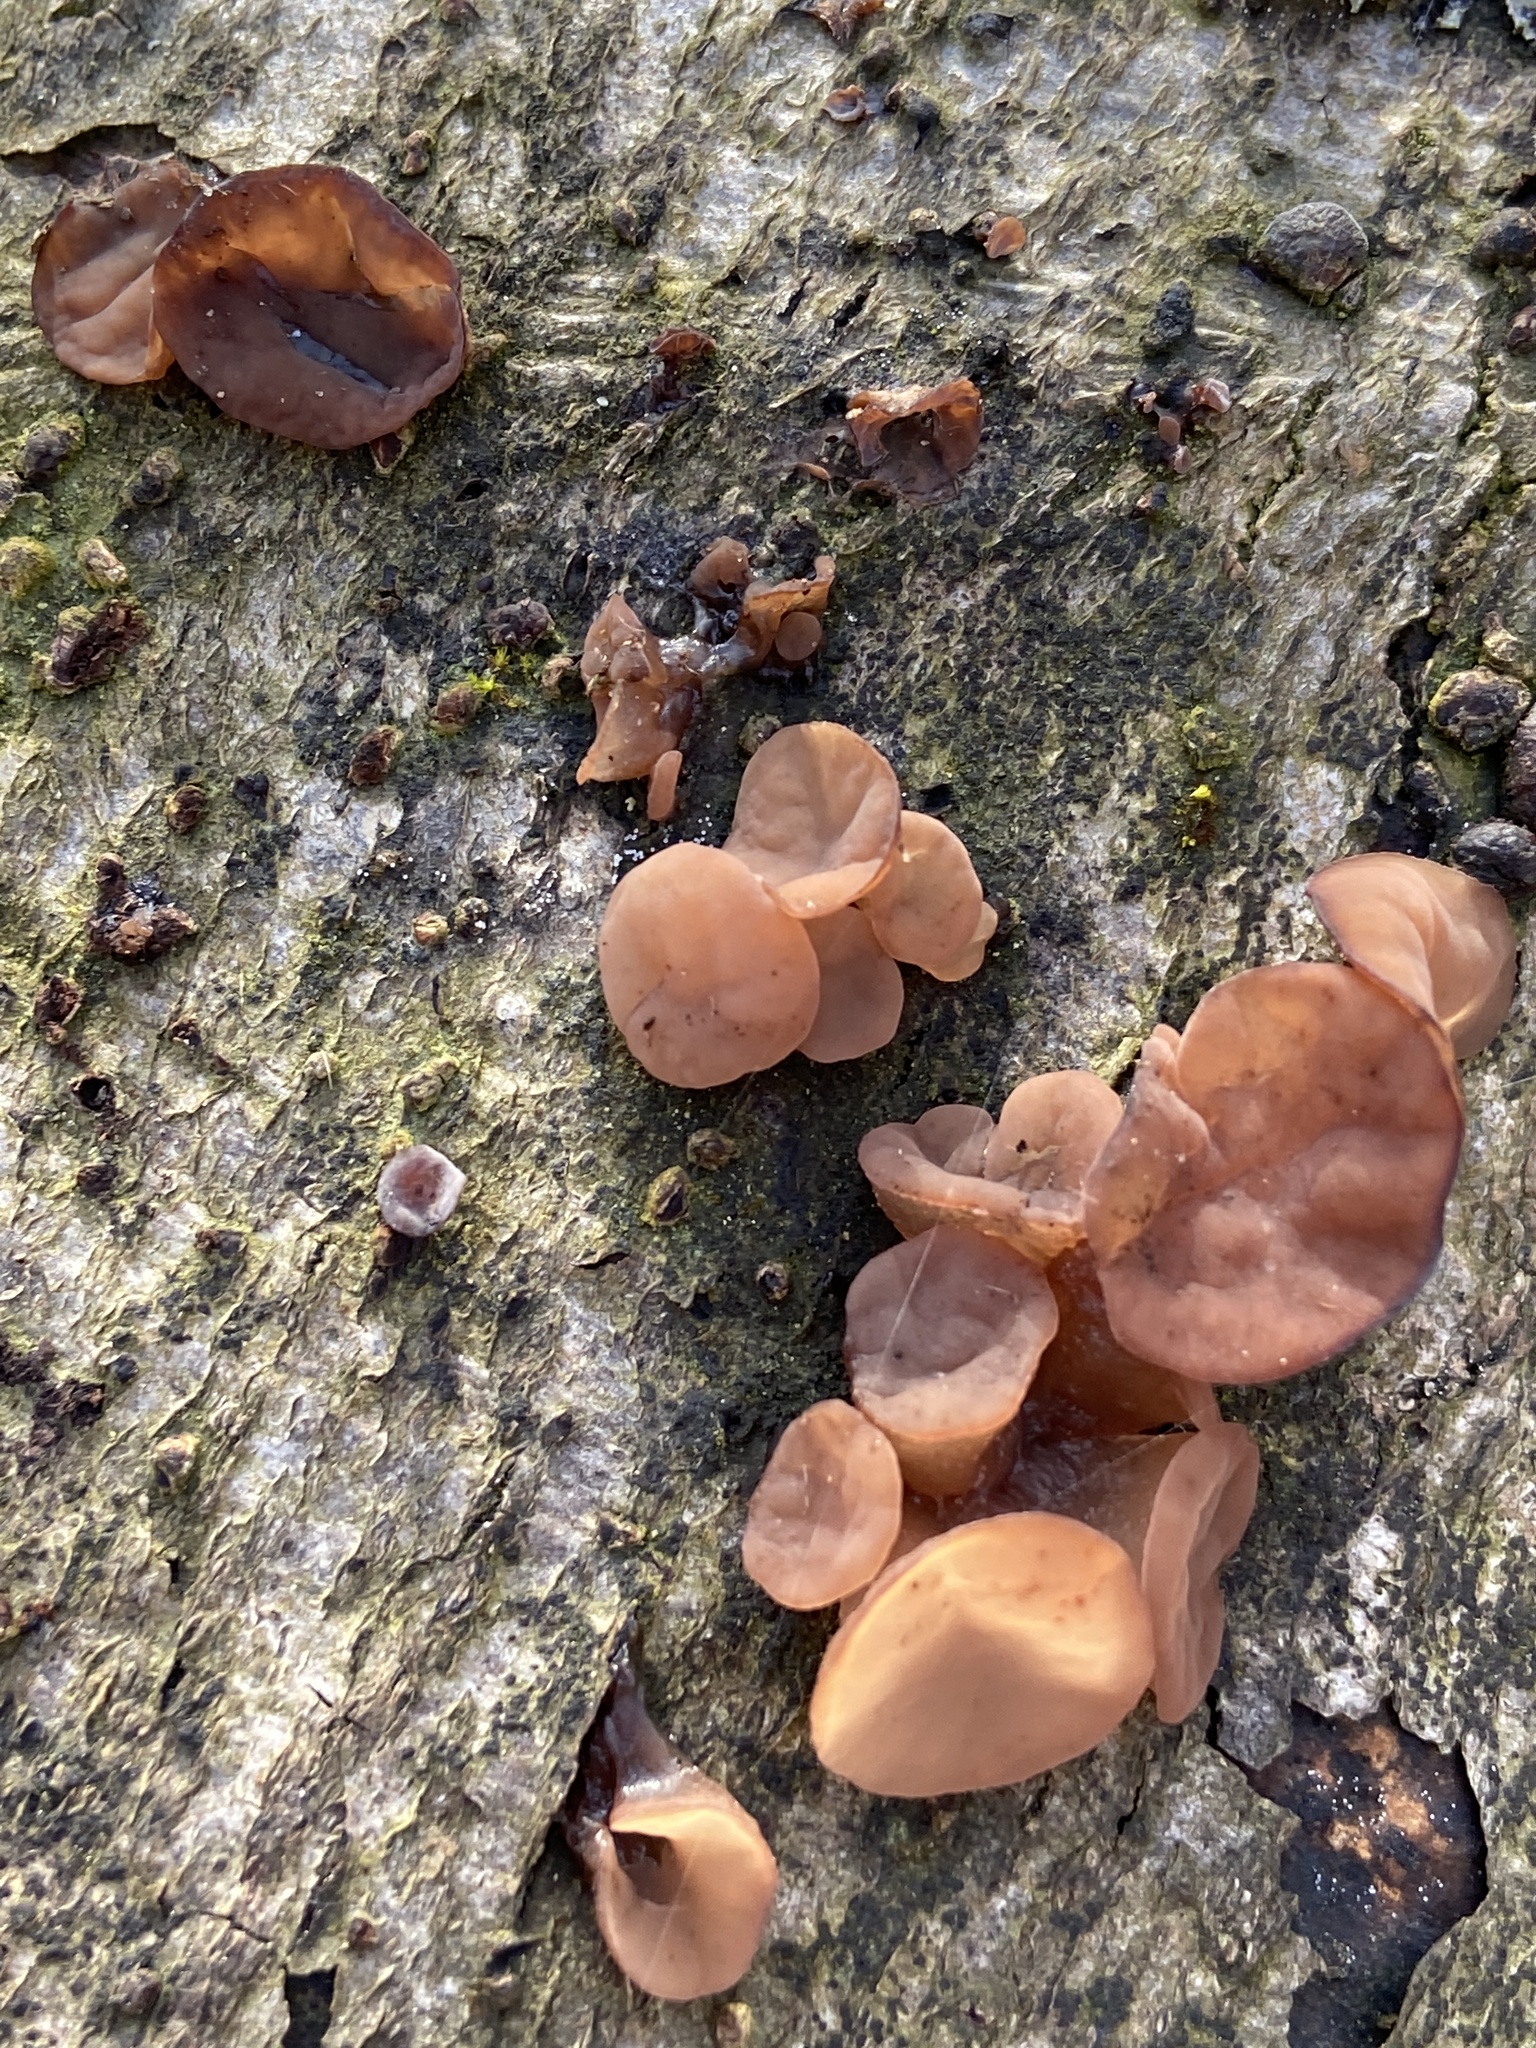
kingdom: Fungi
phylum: Basidiomycota
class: Agaricomycetes
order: Auriculariales
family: Auriculariaceae
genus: Auricularia
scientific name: Auricularia auricula-judae
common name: Jelly ear
